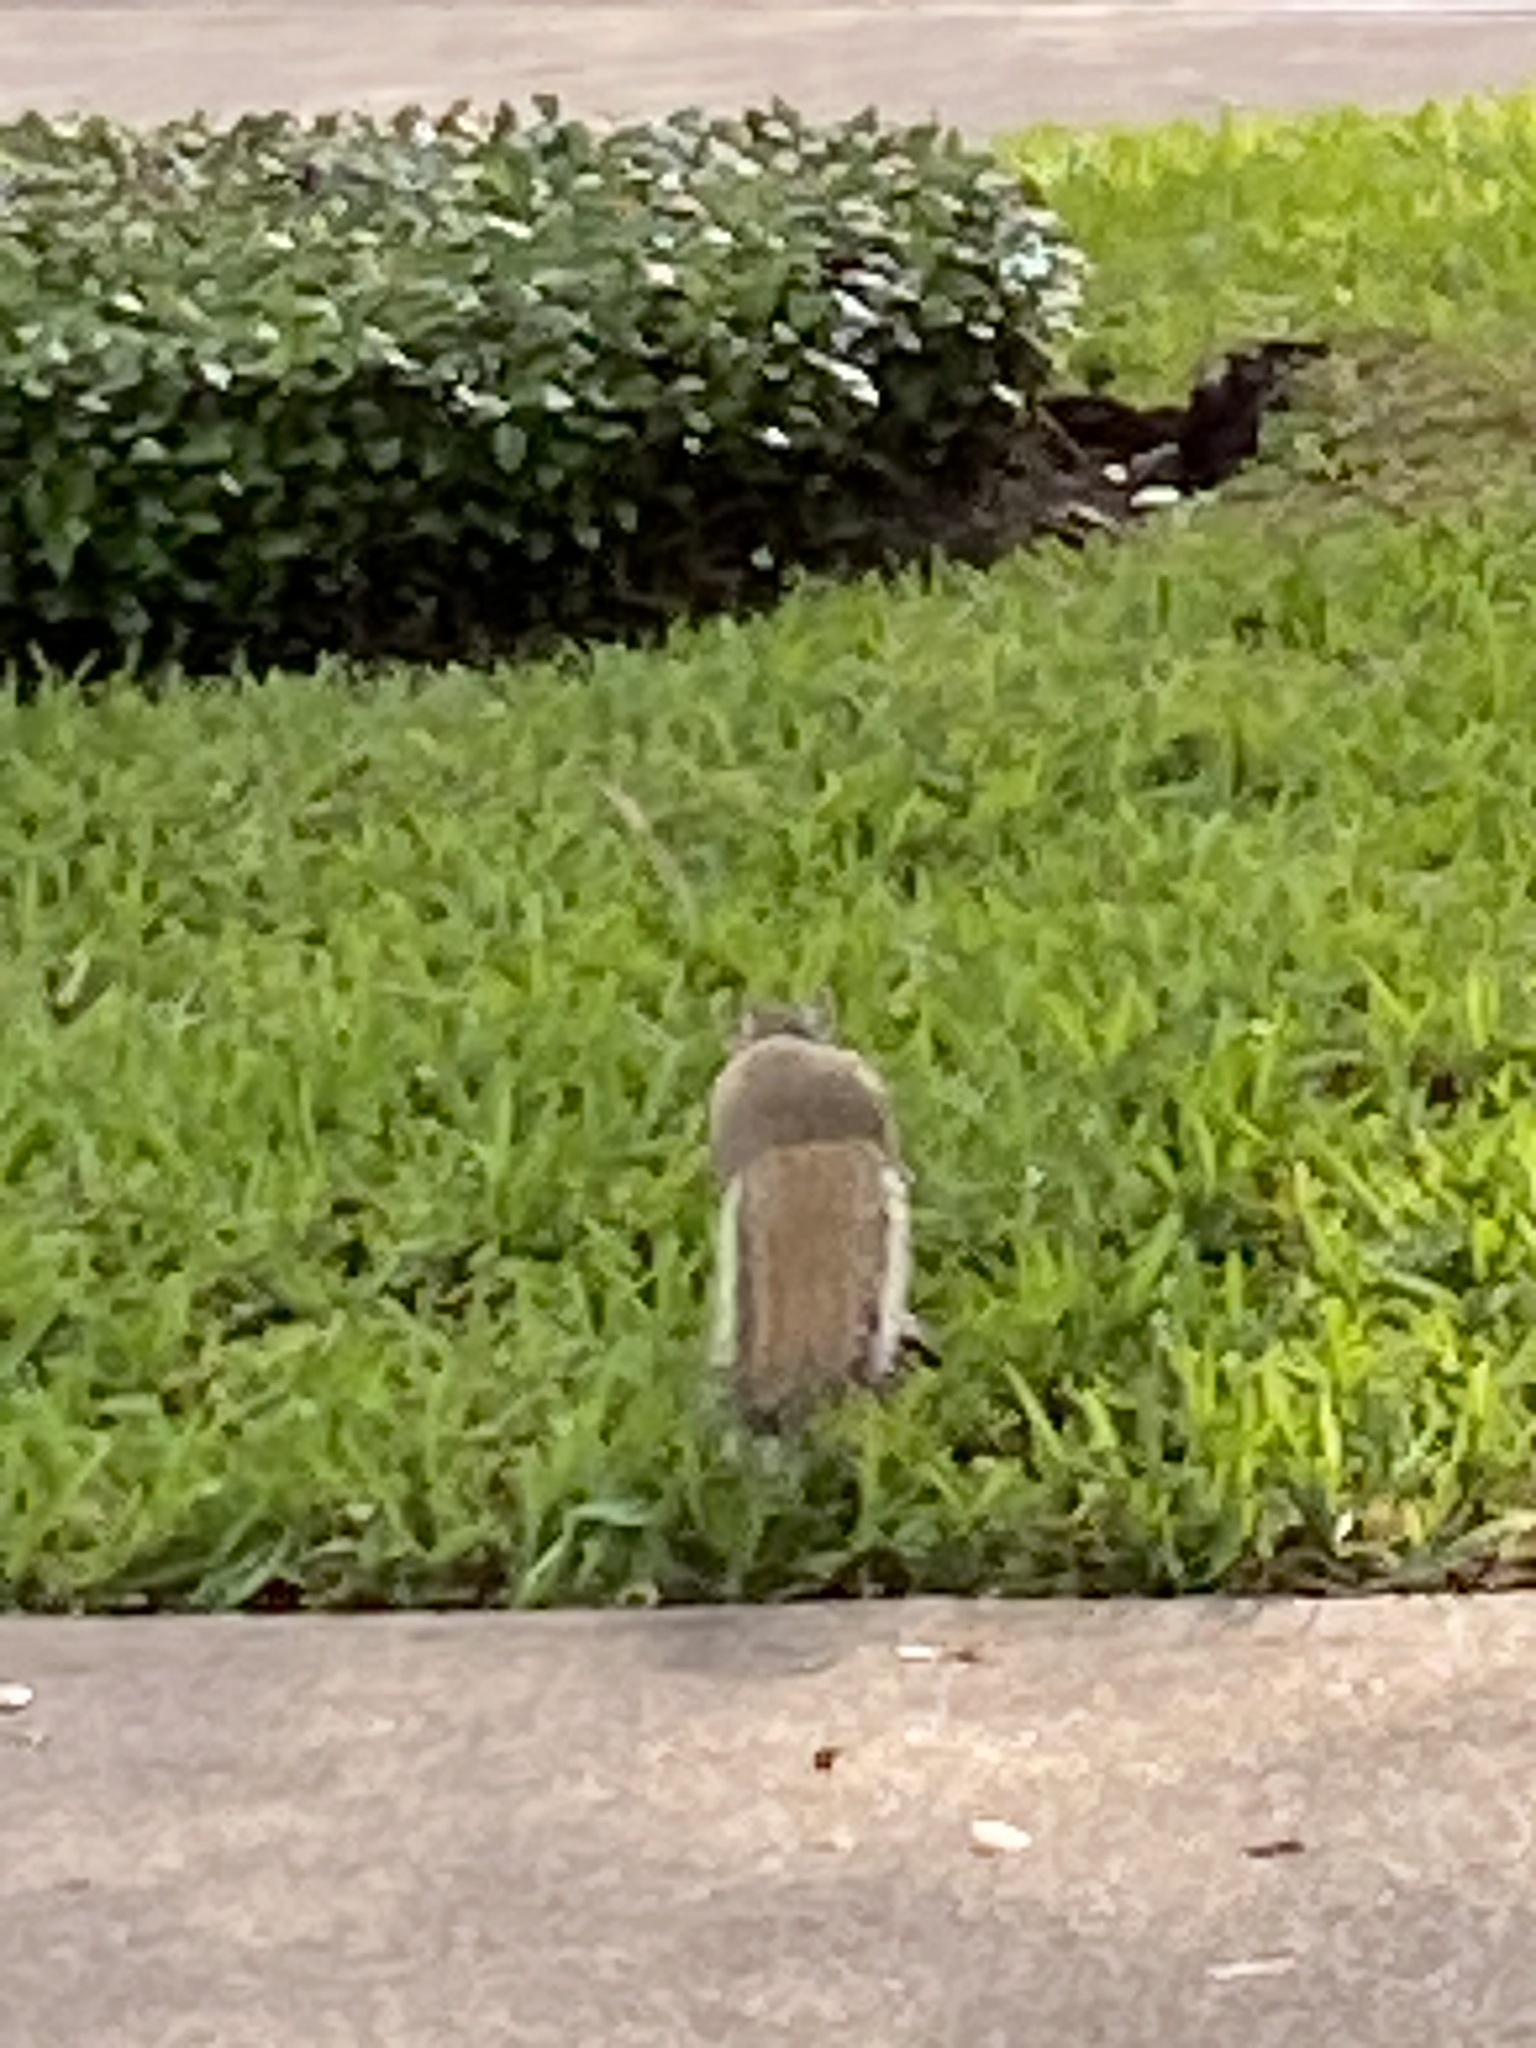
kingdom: Animalia
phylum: Chordata
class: Mammalia
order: Rodentia
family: Sciuridae
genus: Sciurus
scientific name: Sciurus carolinensis
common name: Eastern gray squirrel
